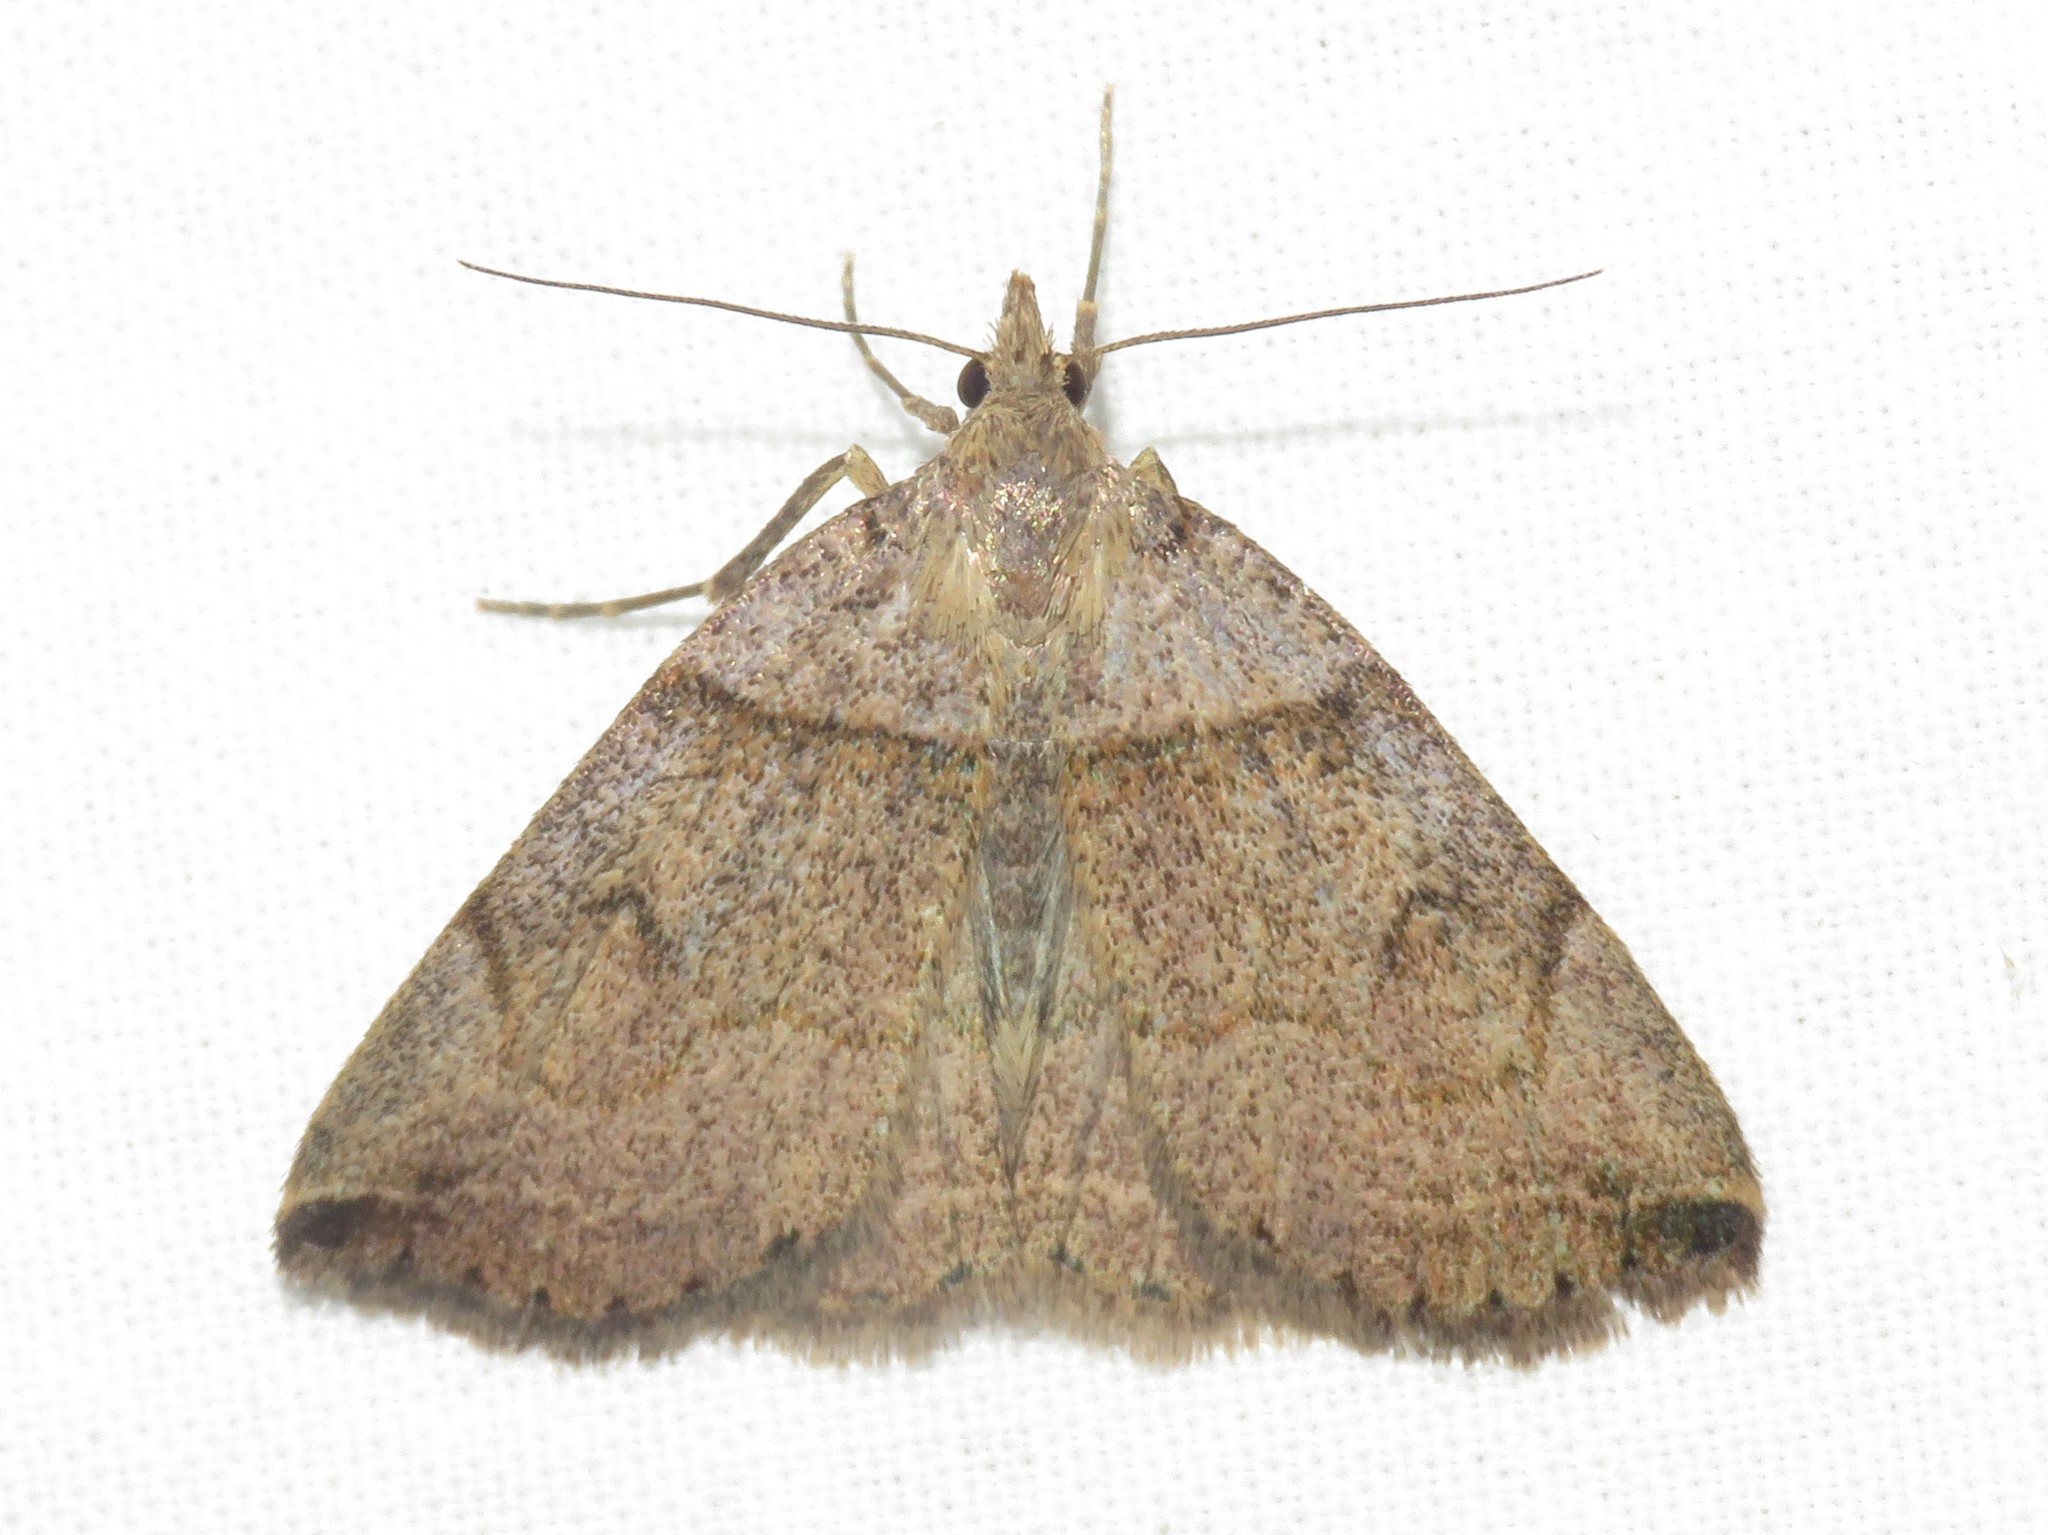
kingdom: Animalia
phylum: Arthropoda
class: Insecta
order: Lepidoptera
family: Erebidae
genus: Zanclognatha
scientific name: Zanclognatha laevigata
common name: Variable fan-foot
